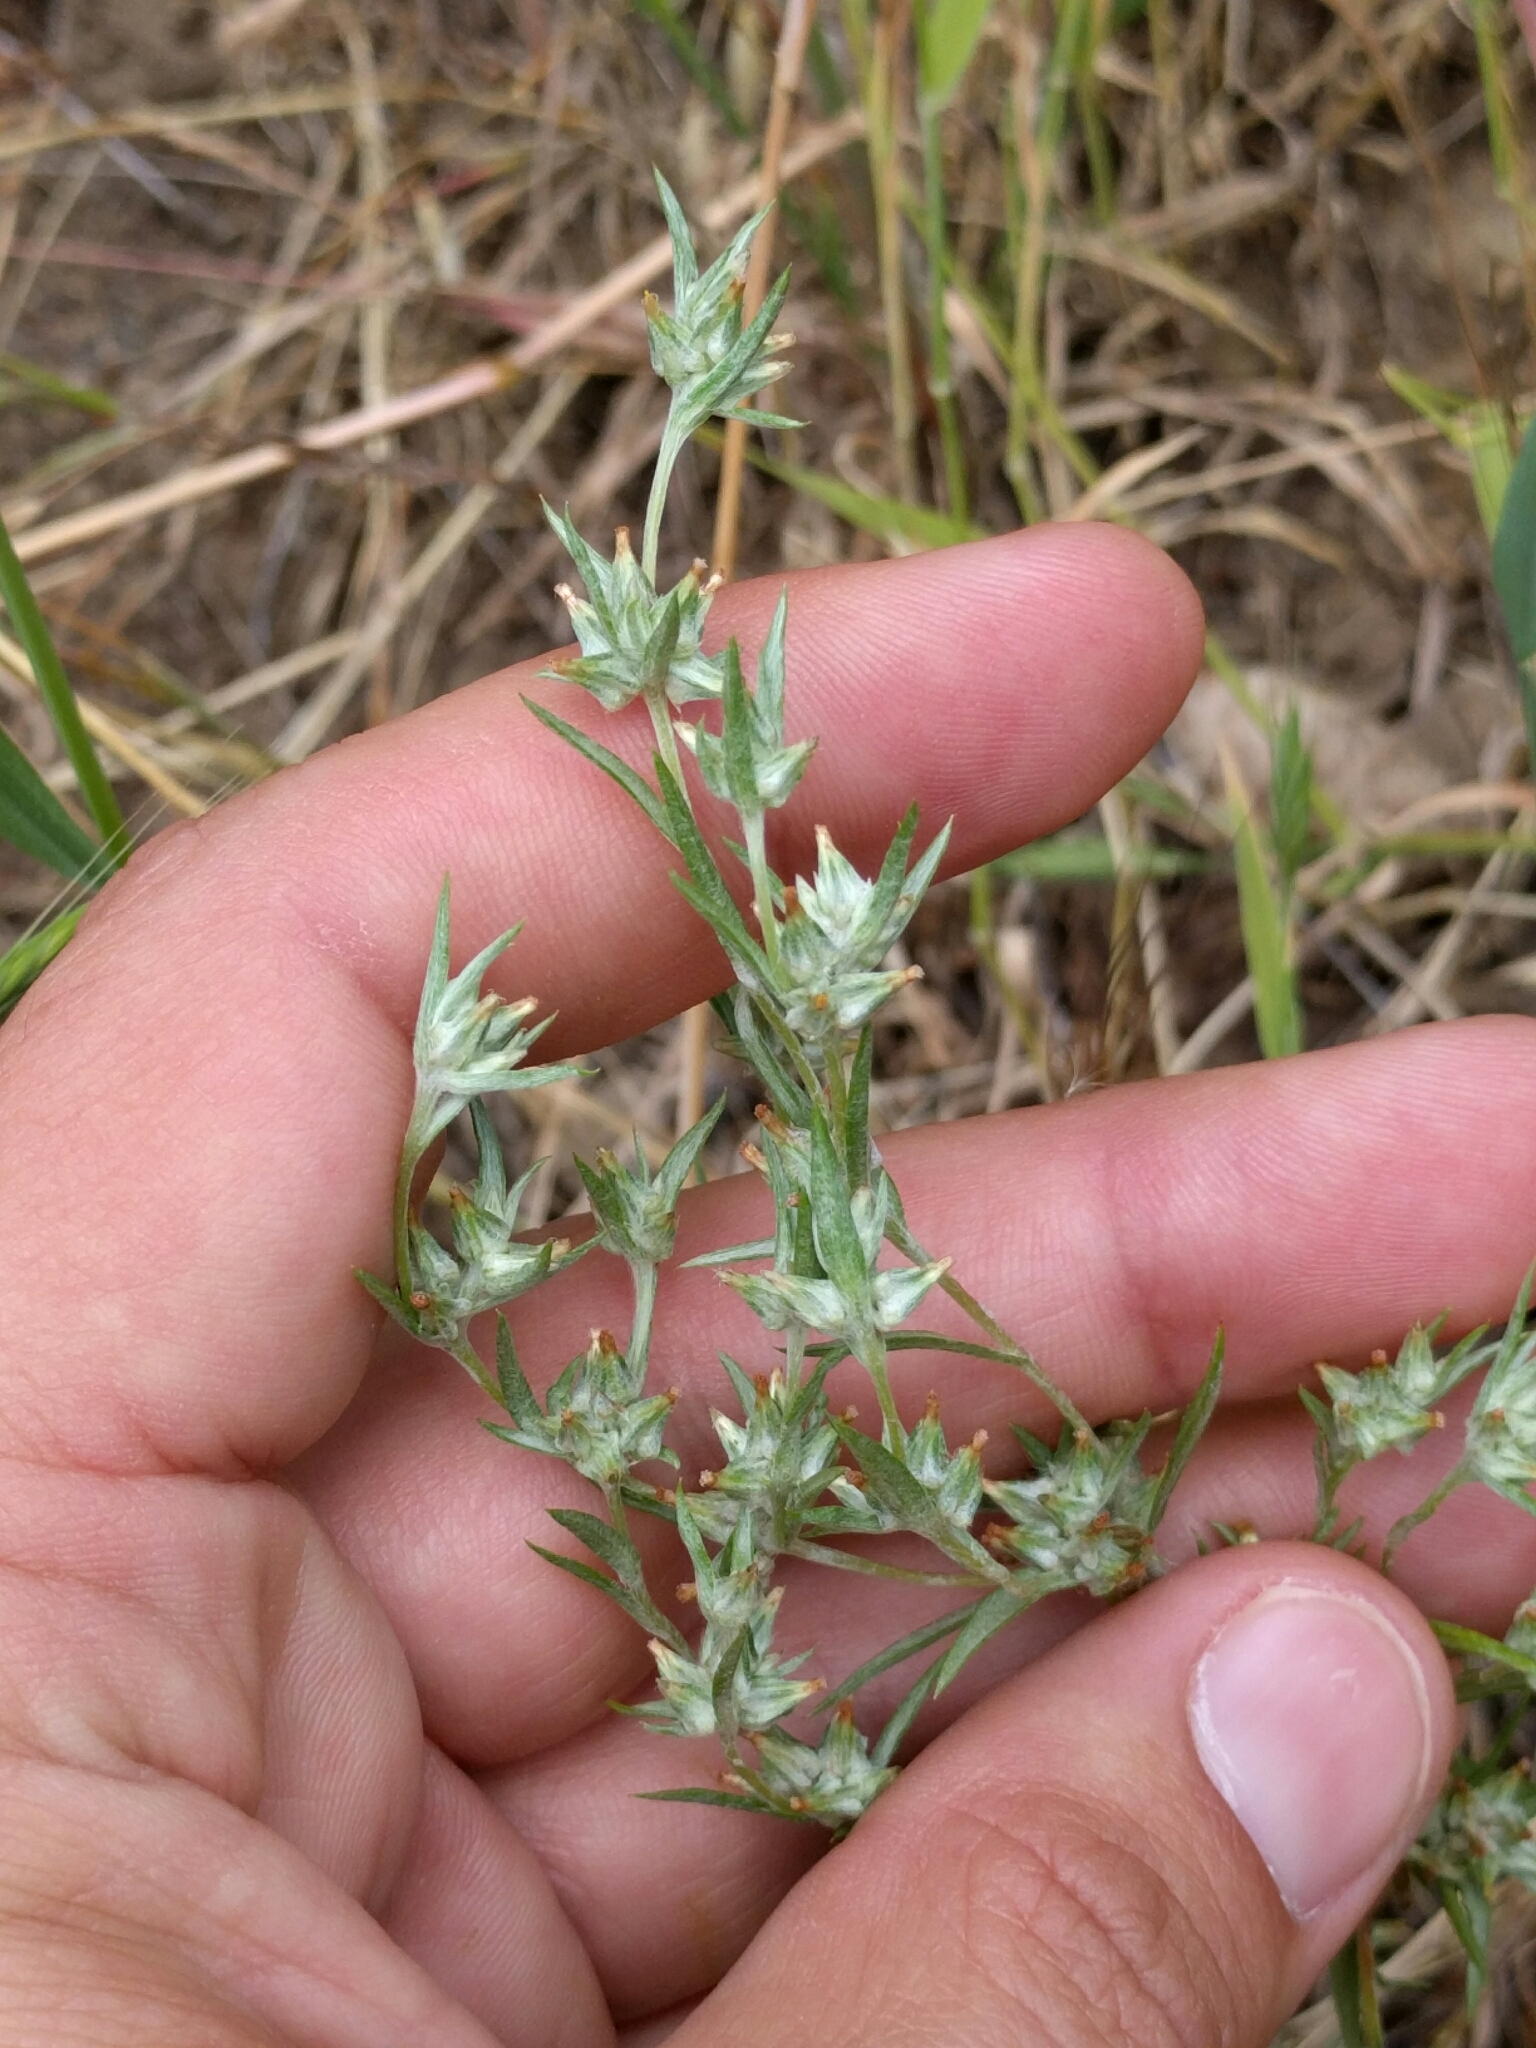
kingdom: Plantae
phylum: Tracheophyta
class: Magnoliopsida
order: Asterales
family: Asteraceae
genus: Logfia
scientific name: Logfia gallica
